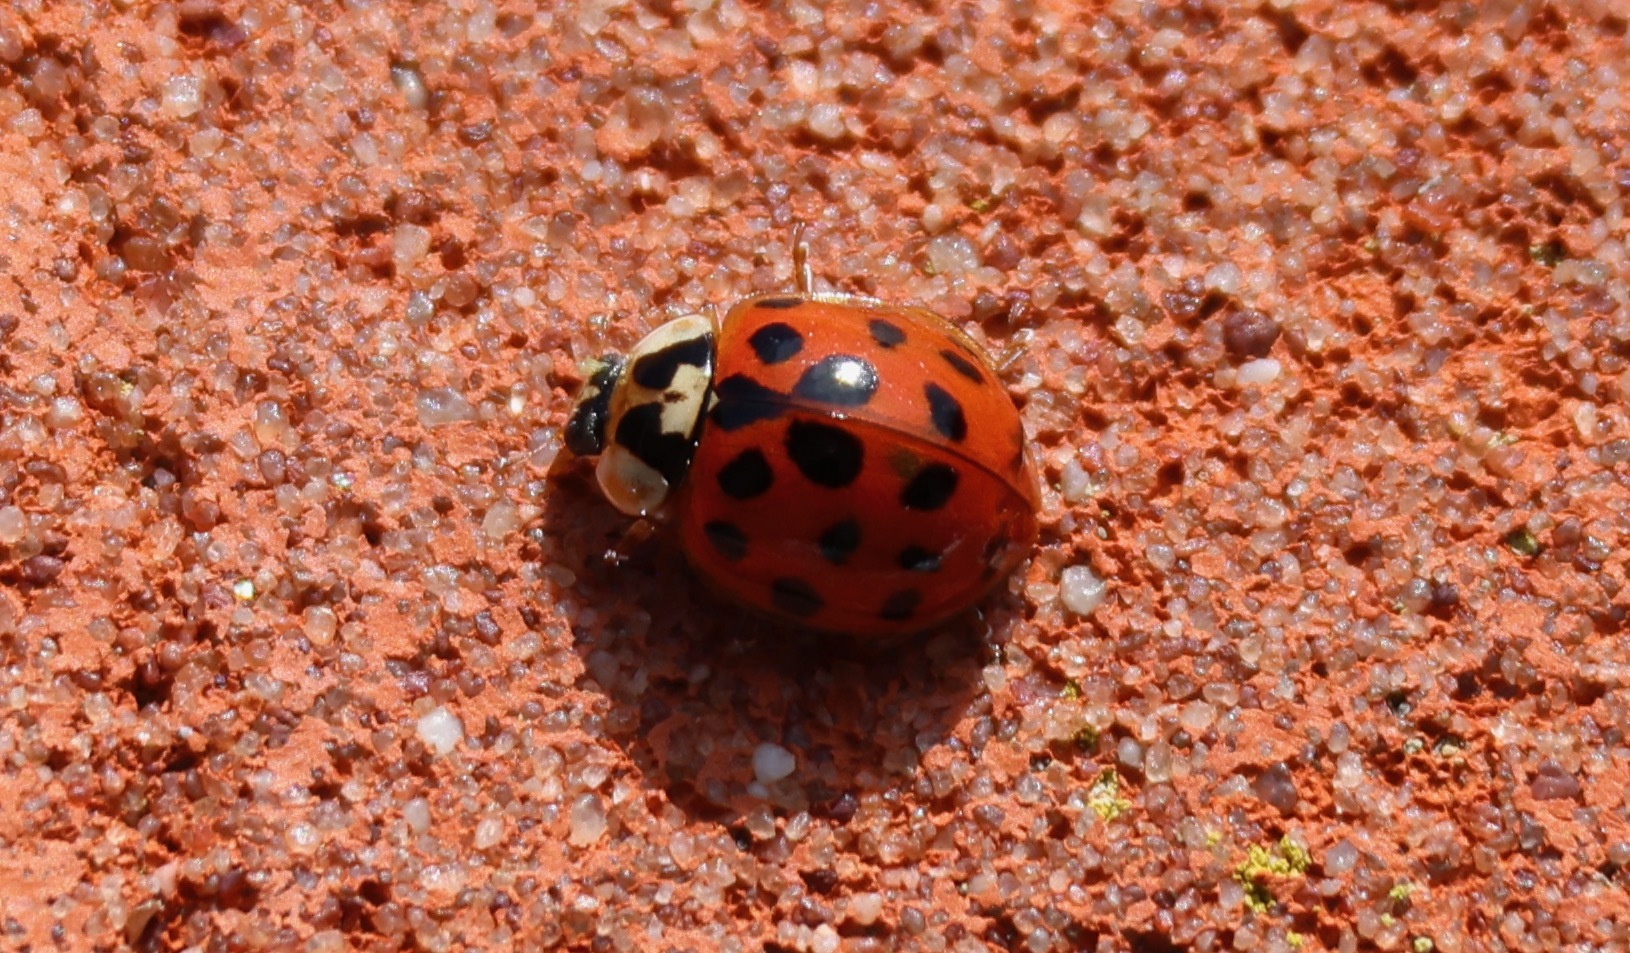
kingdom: Animalia
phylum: Arthropoda
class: Insecta
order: Coleoptera
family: Coccinellidae
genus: Harmonia
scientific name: Harmonia axyridis
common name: Harlequin ladybird
